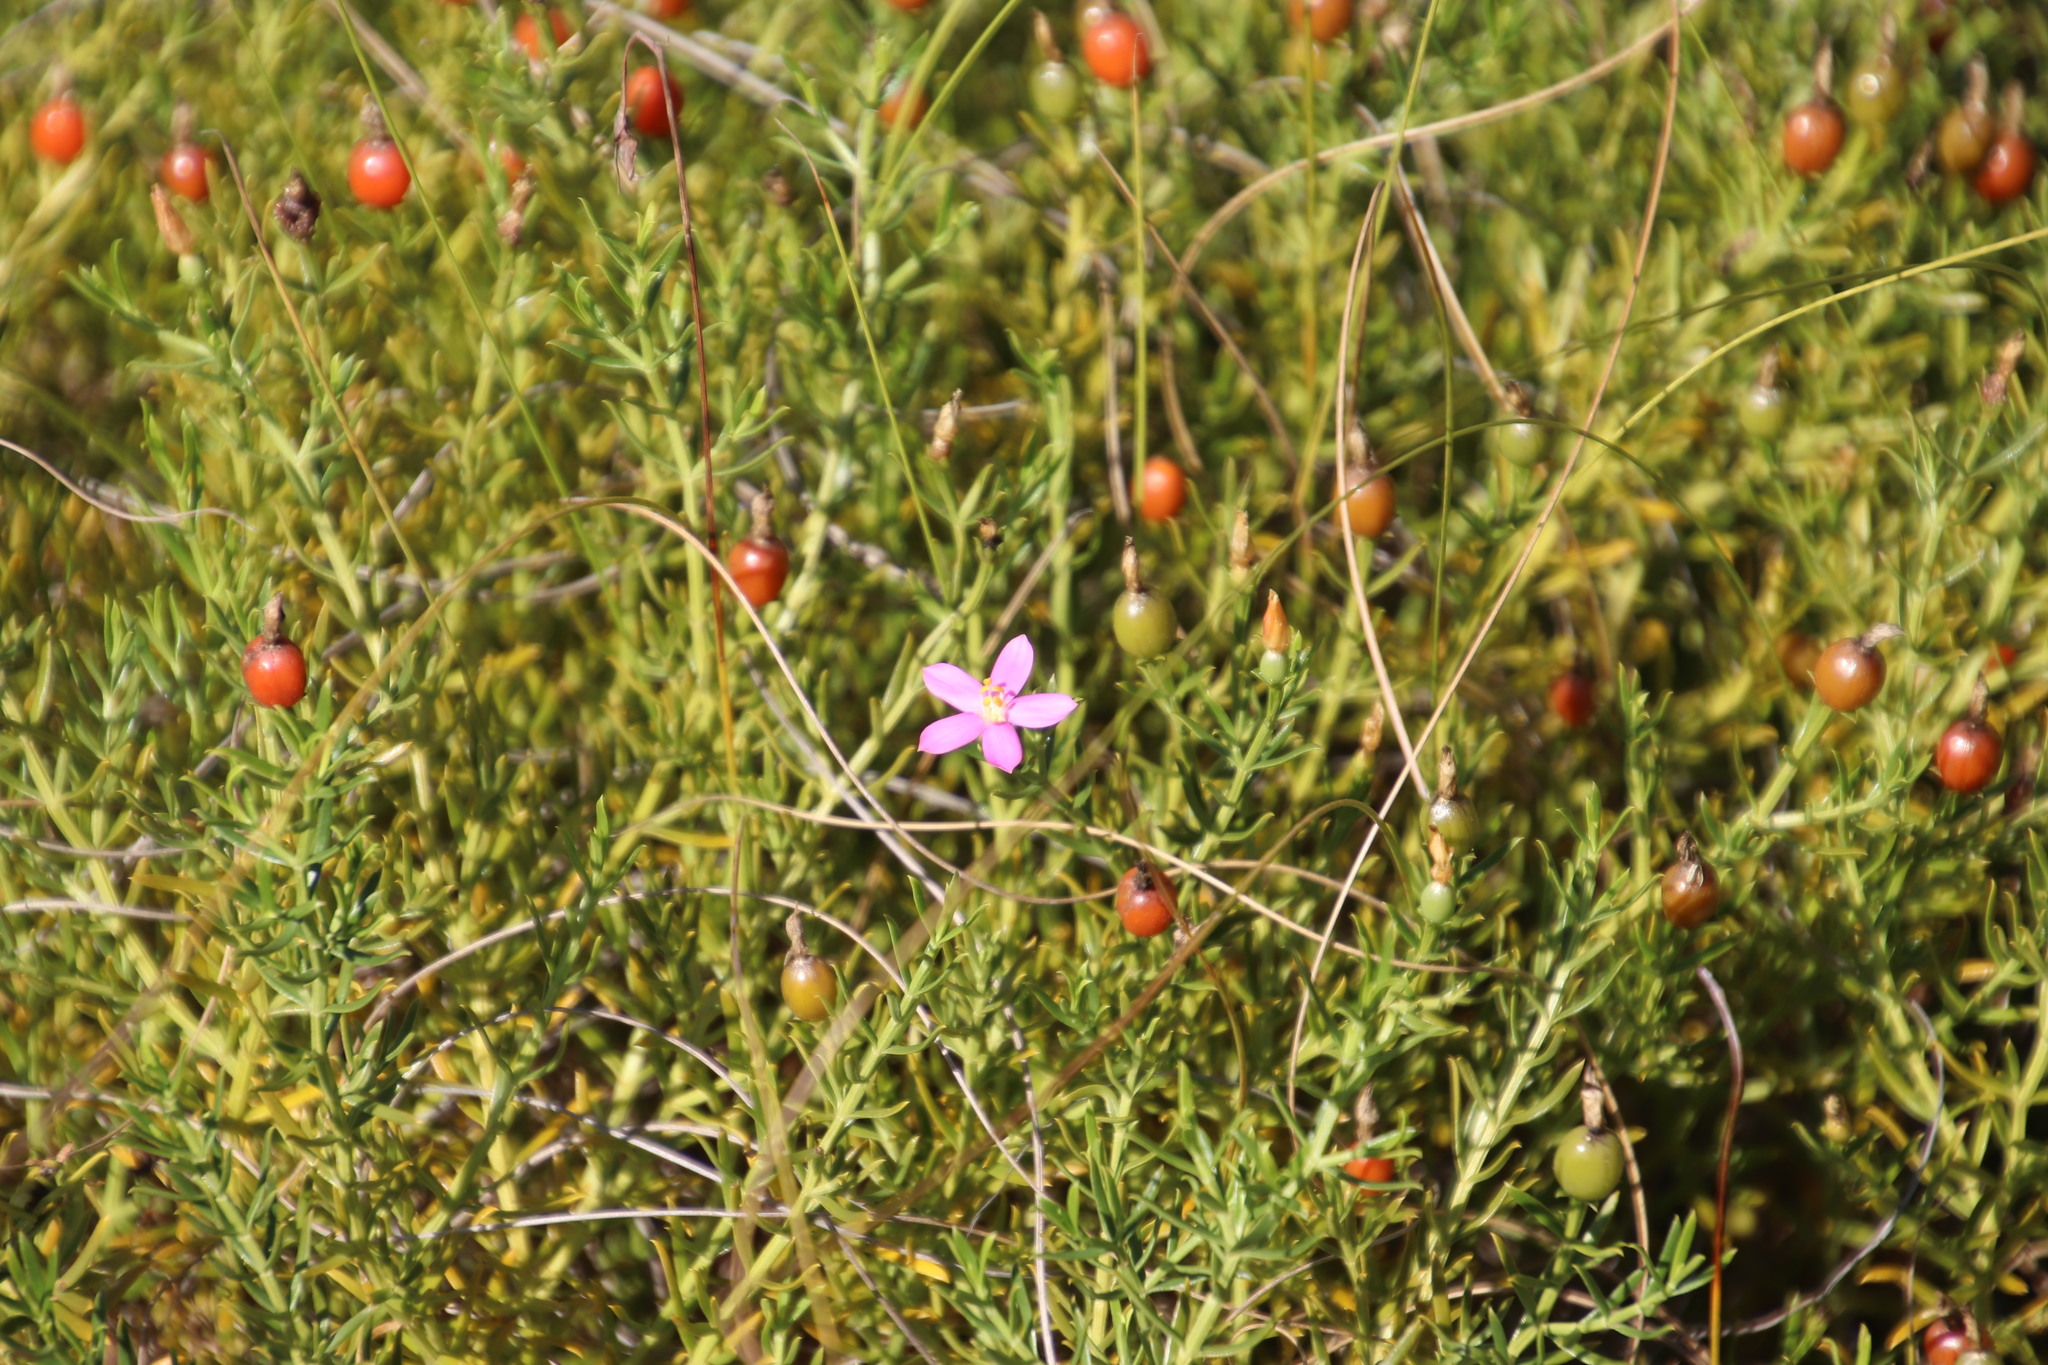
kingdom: Plantae
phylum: Tracheophyta
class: Magnoliopsida
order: Gentianales
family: Gentianaceae
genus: Chironia
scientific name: Chironia baccifera
